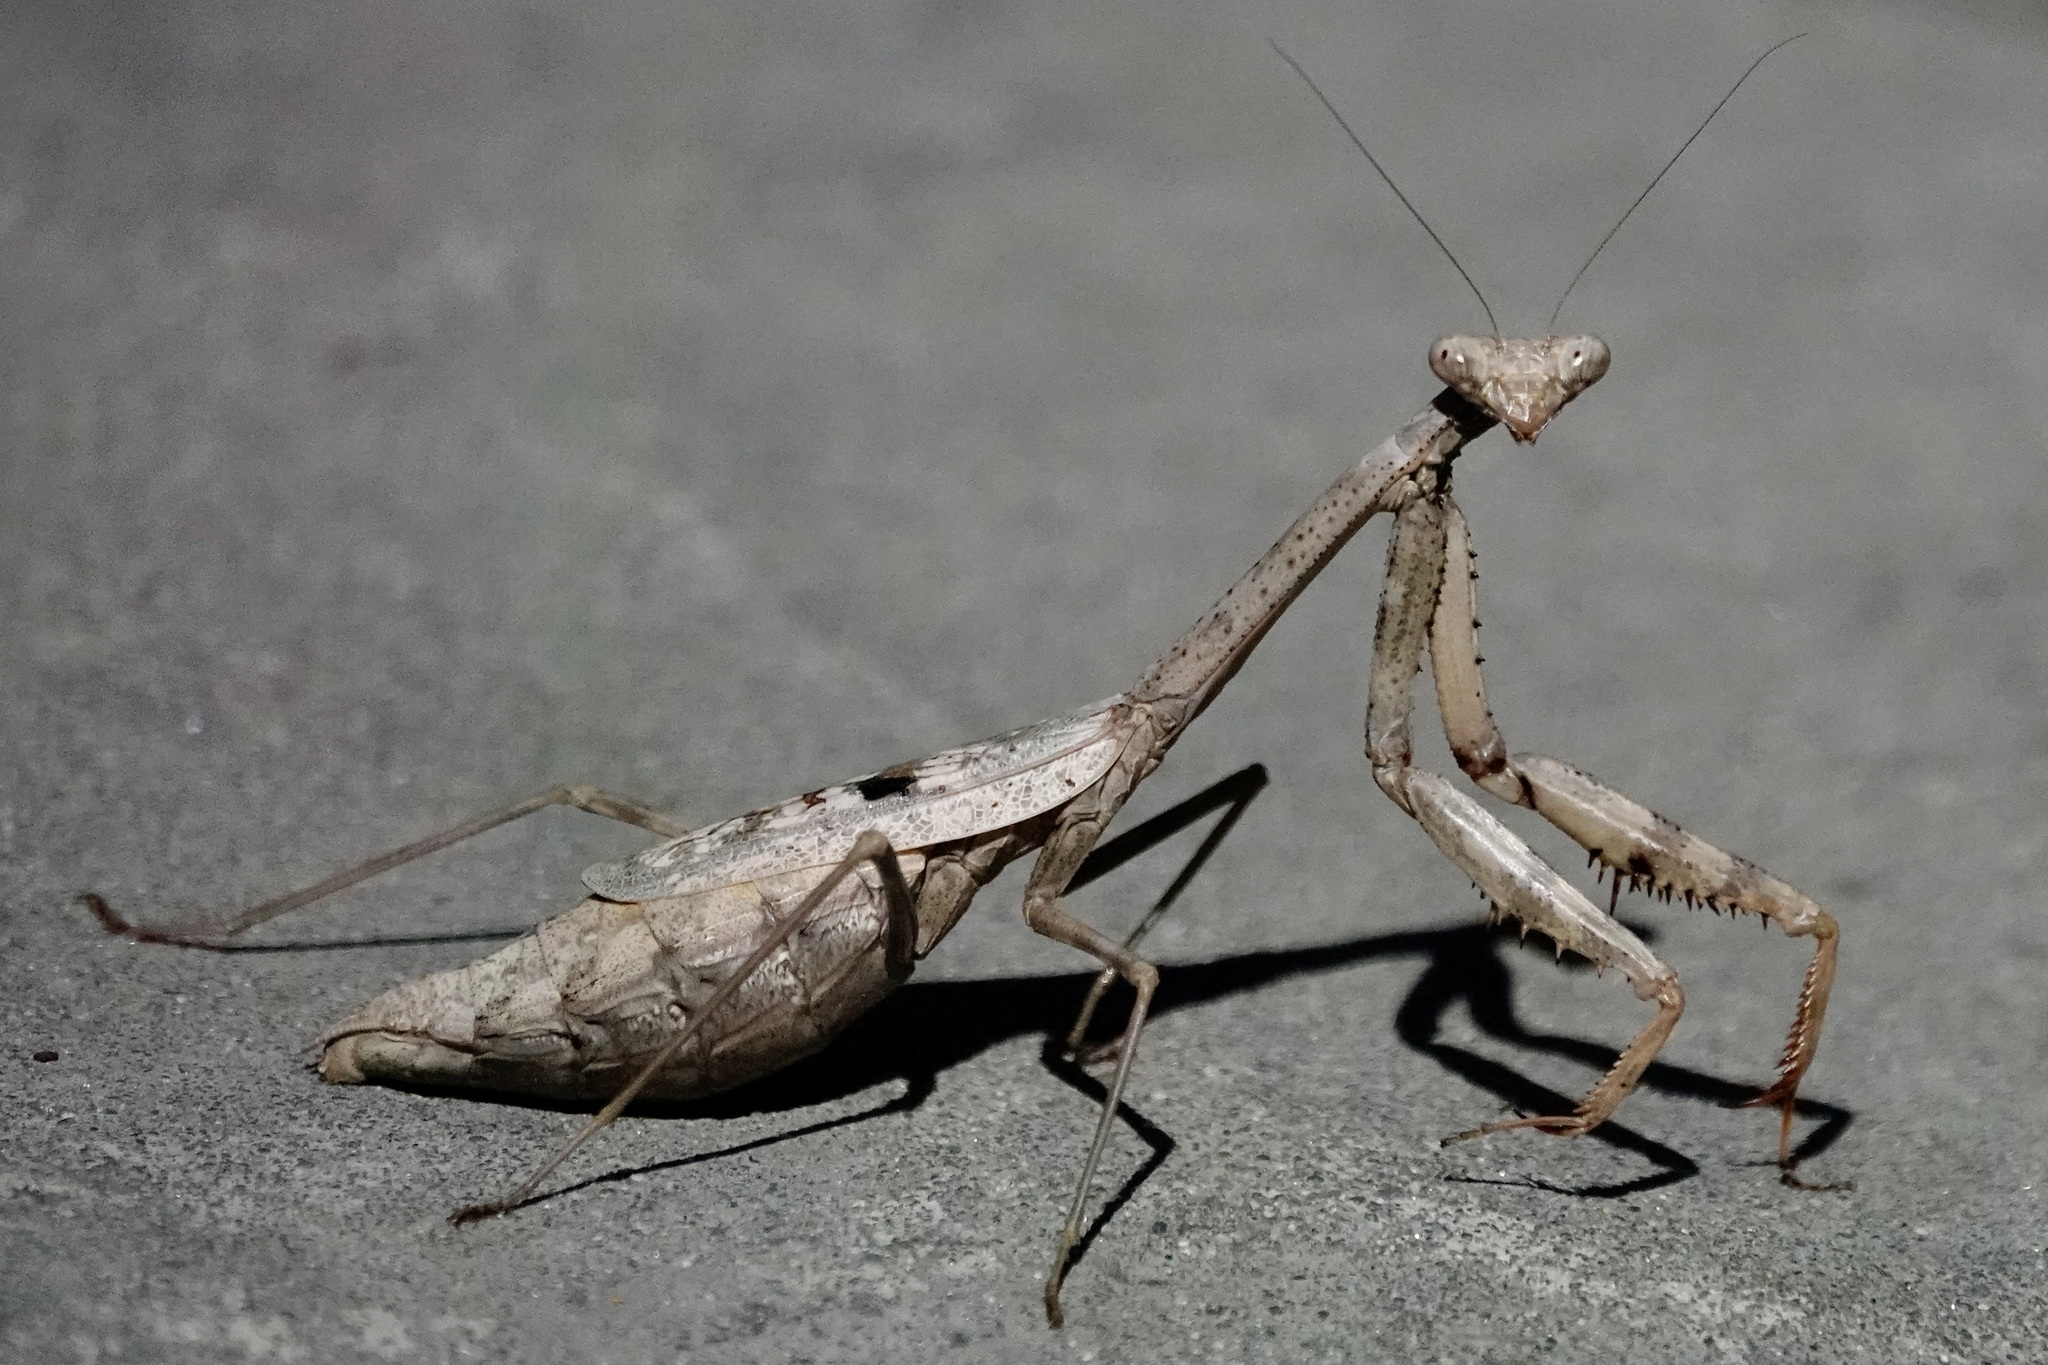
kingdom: Animalia
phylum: Arthropoda
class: Insecta
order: Mantodea
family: Mantidae
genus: Stagmomantis
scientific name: Stagmomantis carolina
